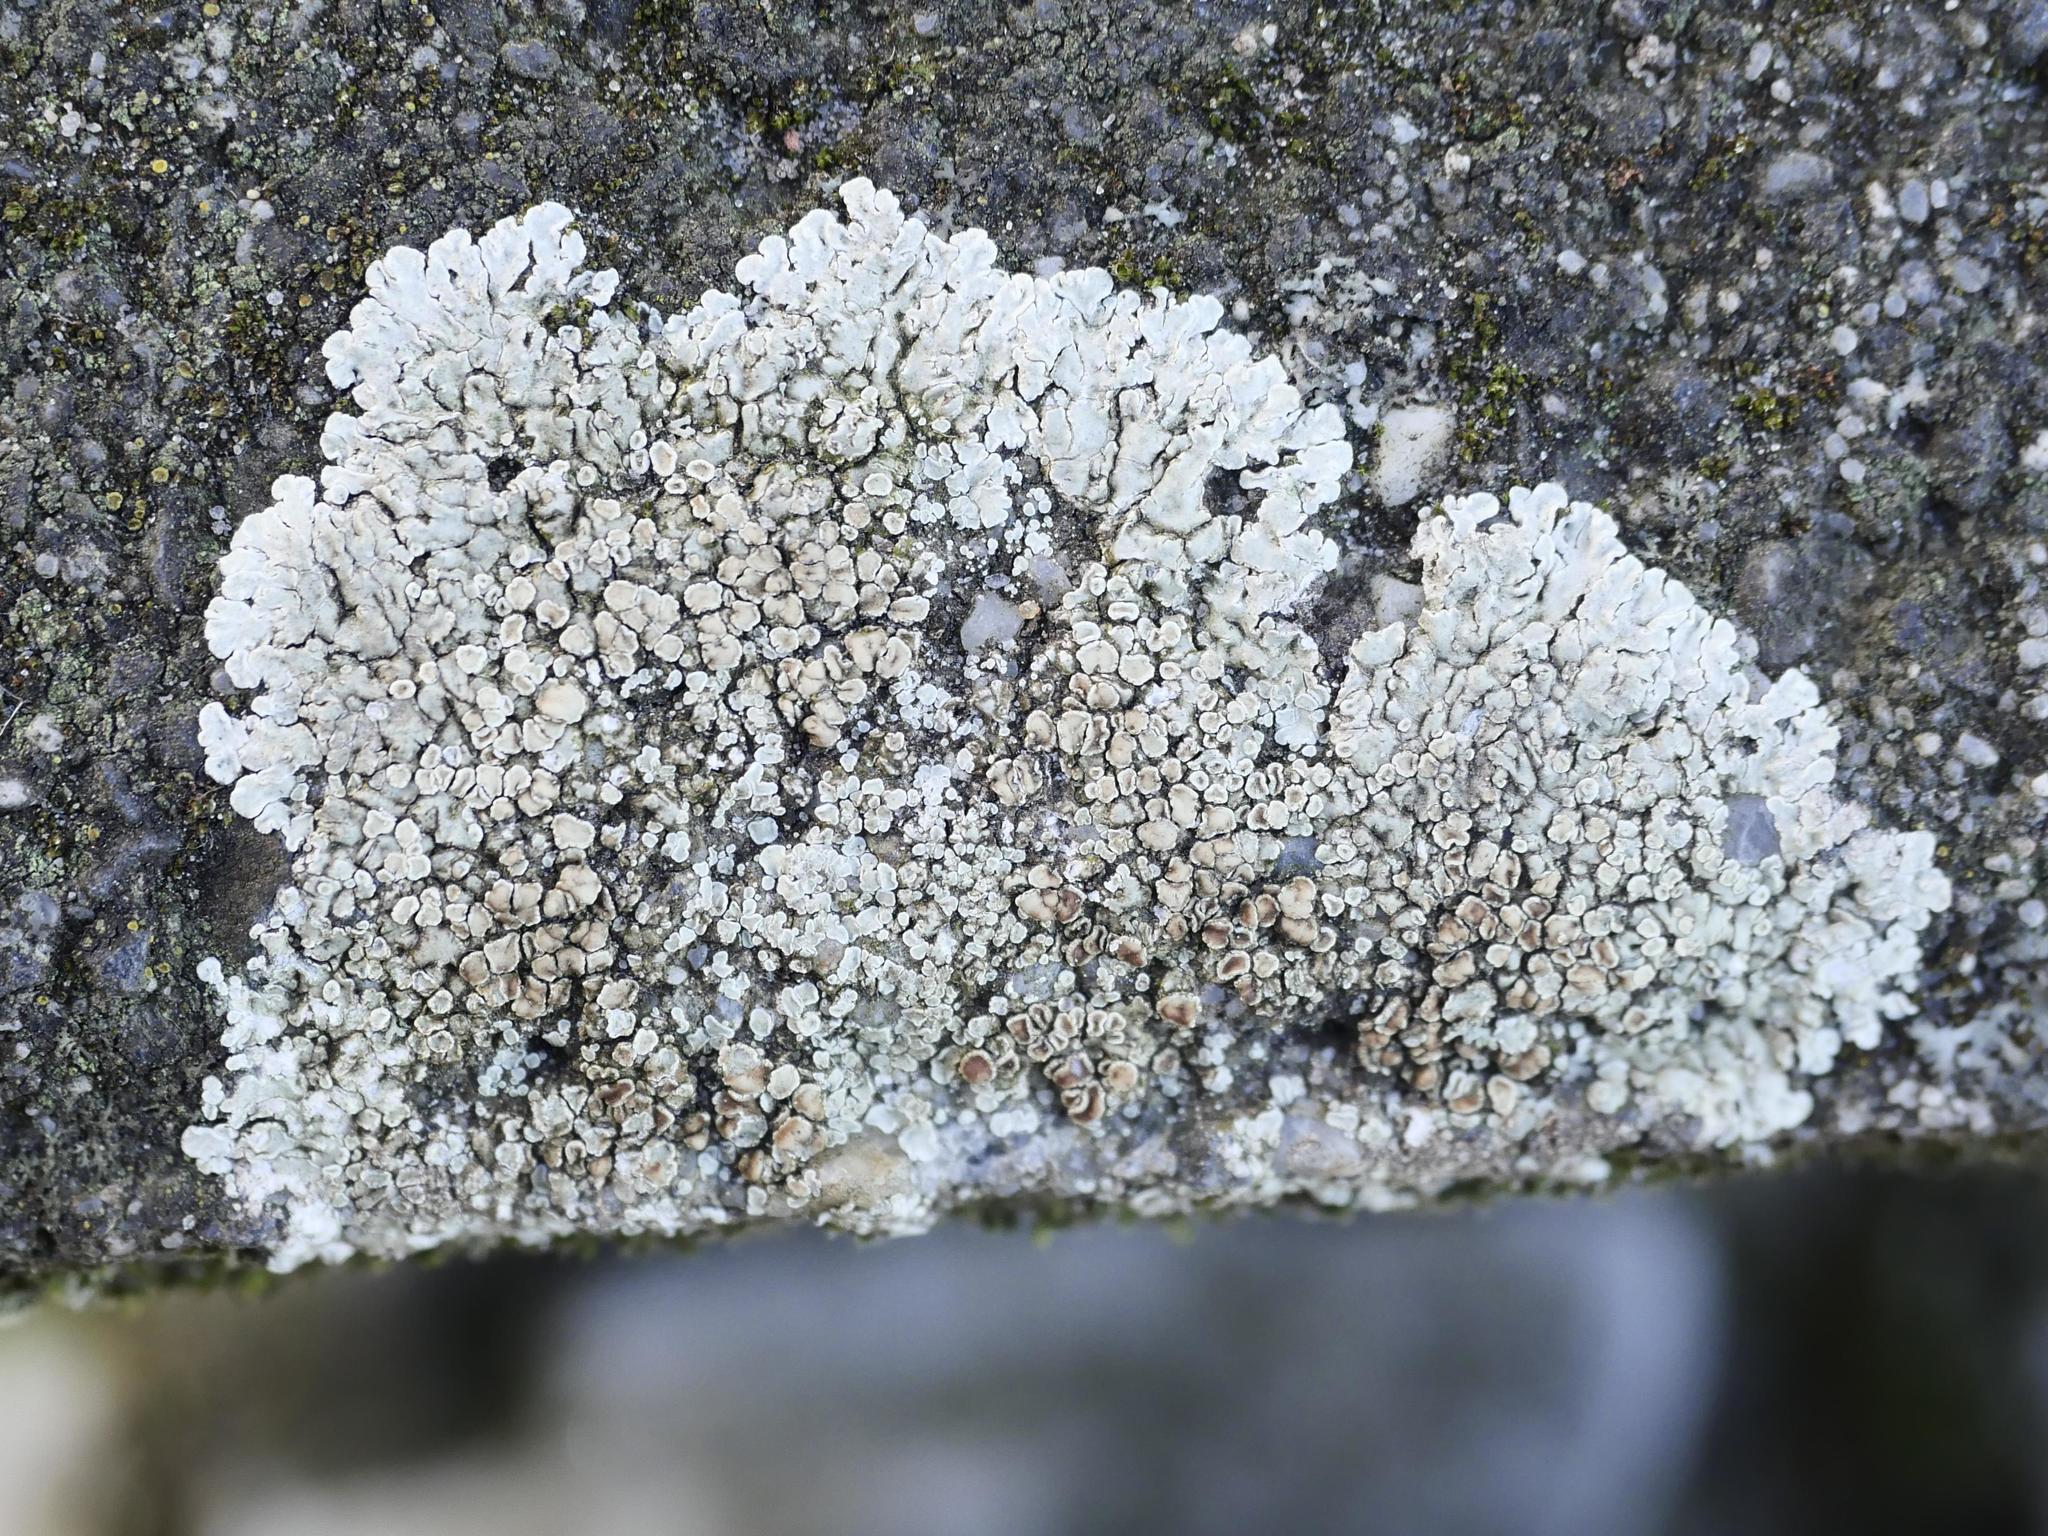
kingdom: Fungi
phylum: Ascomycota
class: Lecanoromycetes
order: Lecanorales
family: Lecanoraceae
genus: Protoparmeliopsis
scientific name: Protoparmeliopsis muralis
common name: Stonewall rim lichen
